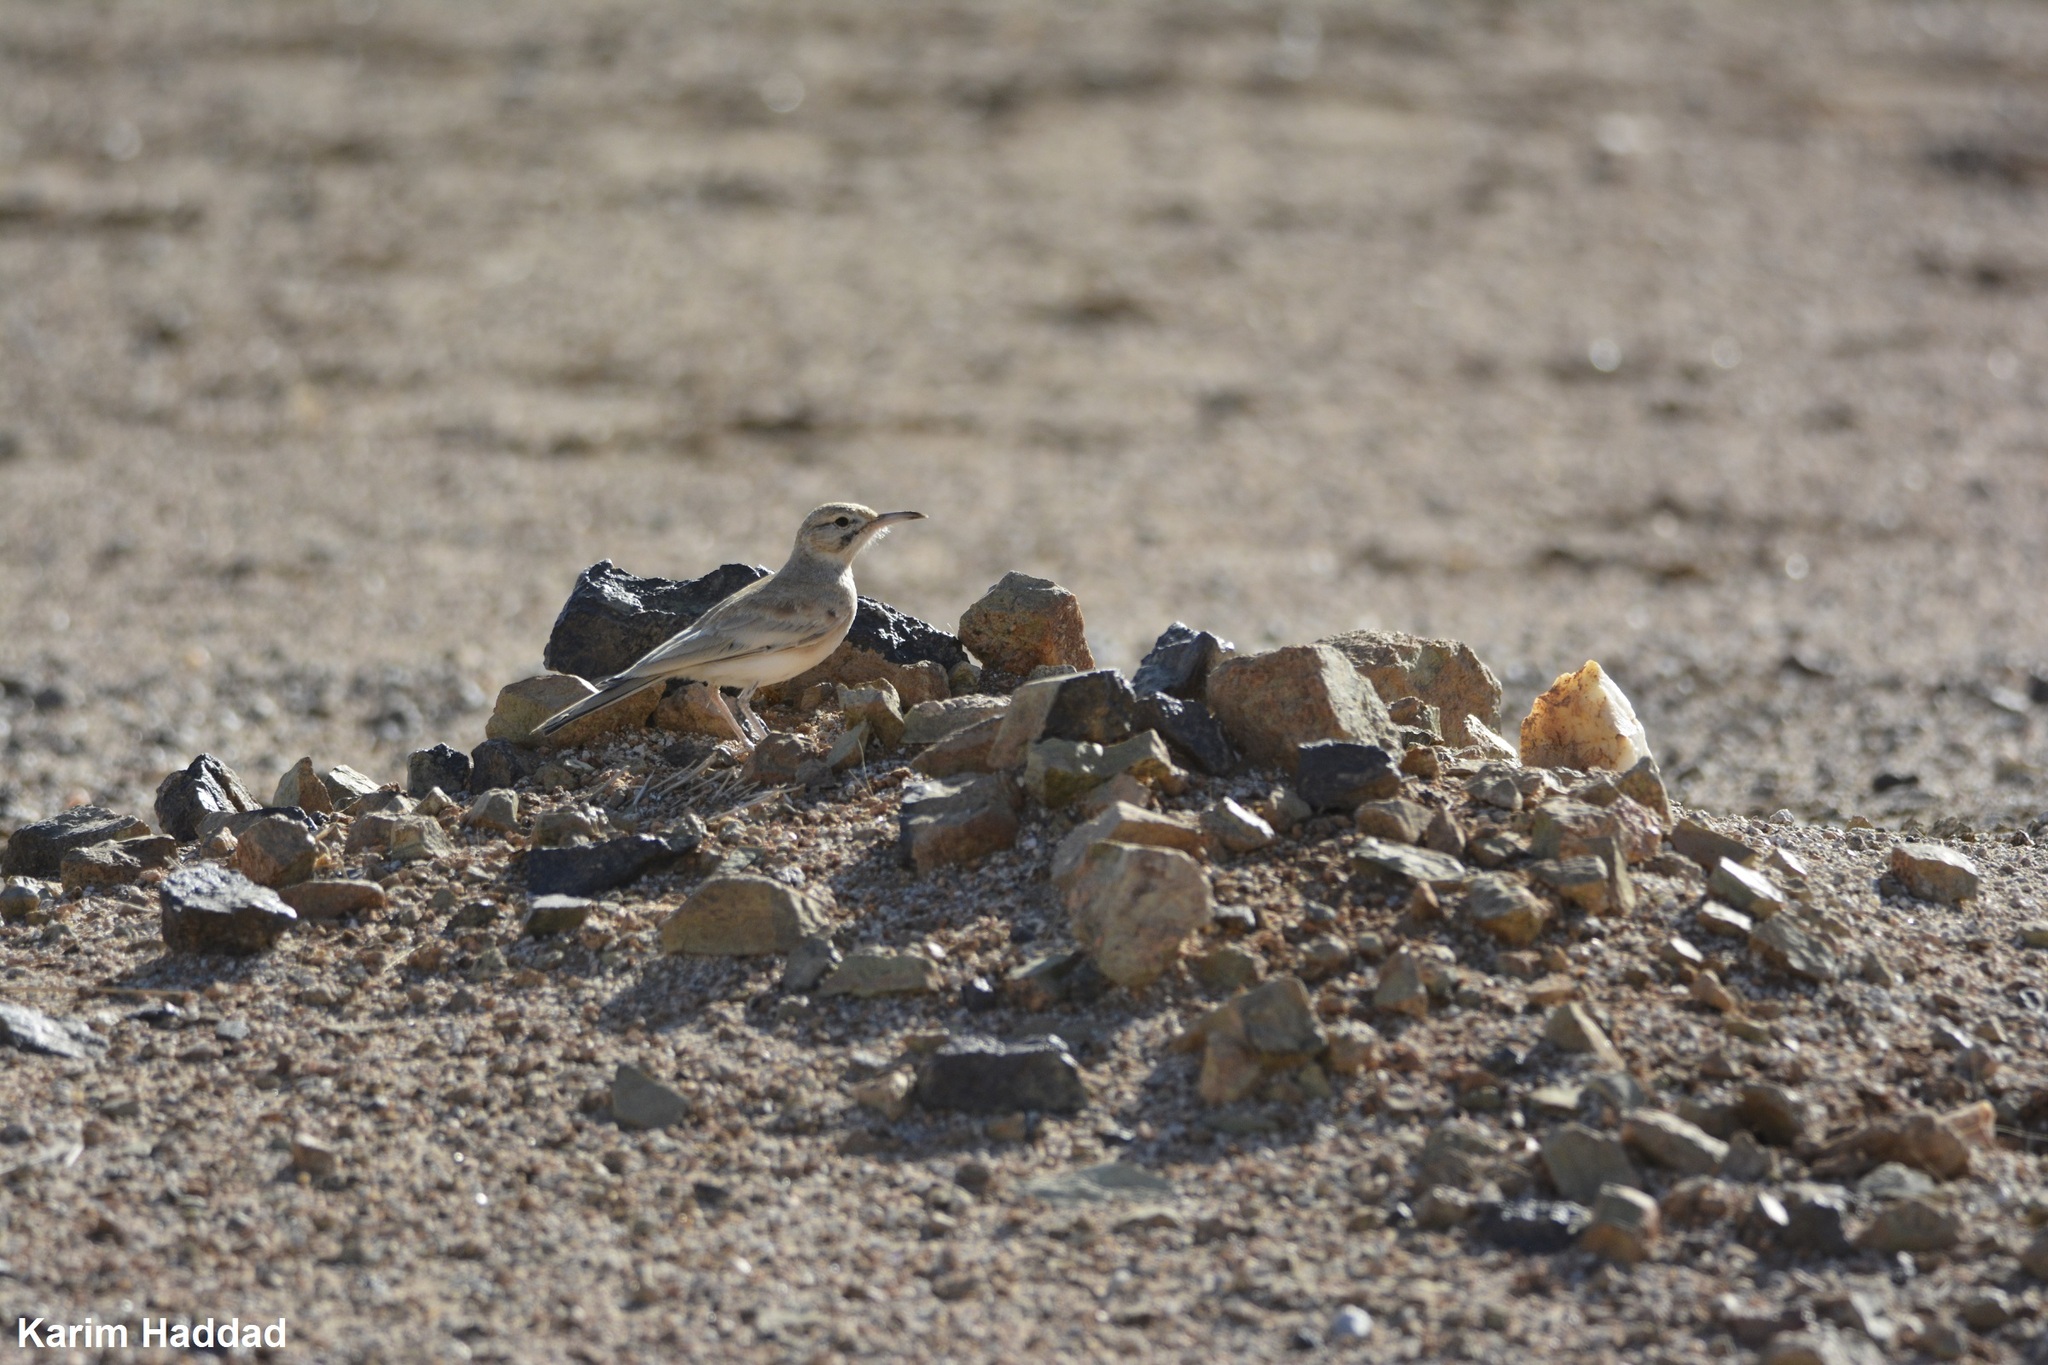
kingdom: Animalia
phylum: Chordata
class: Aves
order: Passeriformes
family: Alaudidae
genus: Alaemon
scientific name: Alaemon alaudipes
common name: Greater hoopoe-lark
